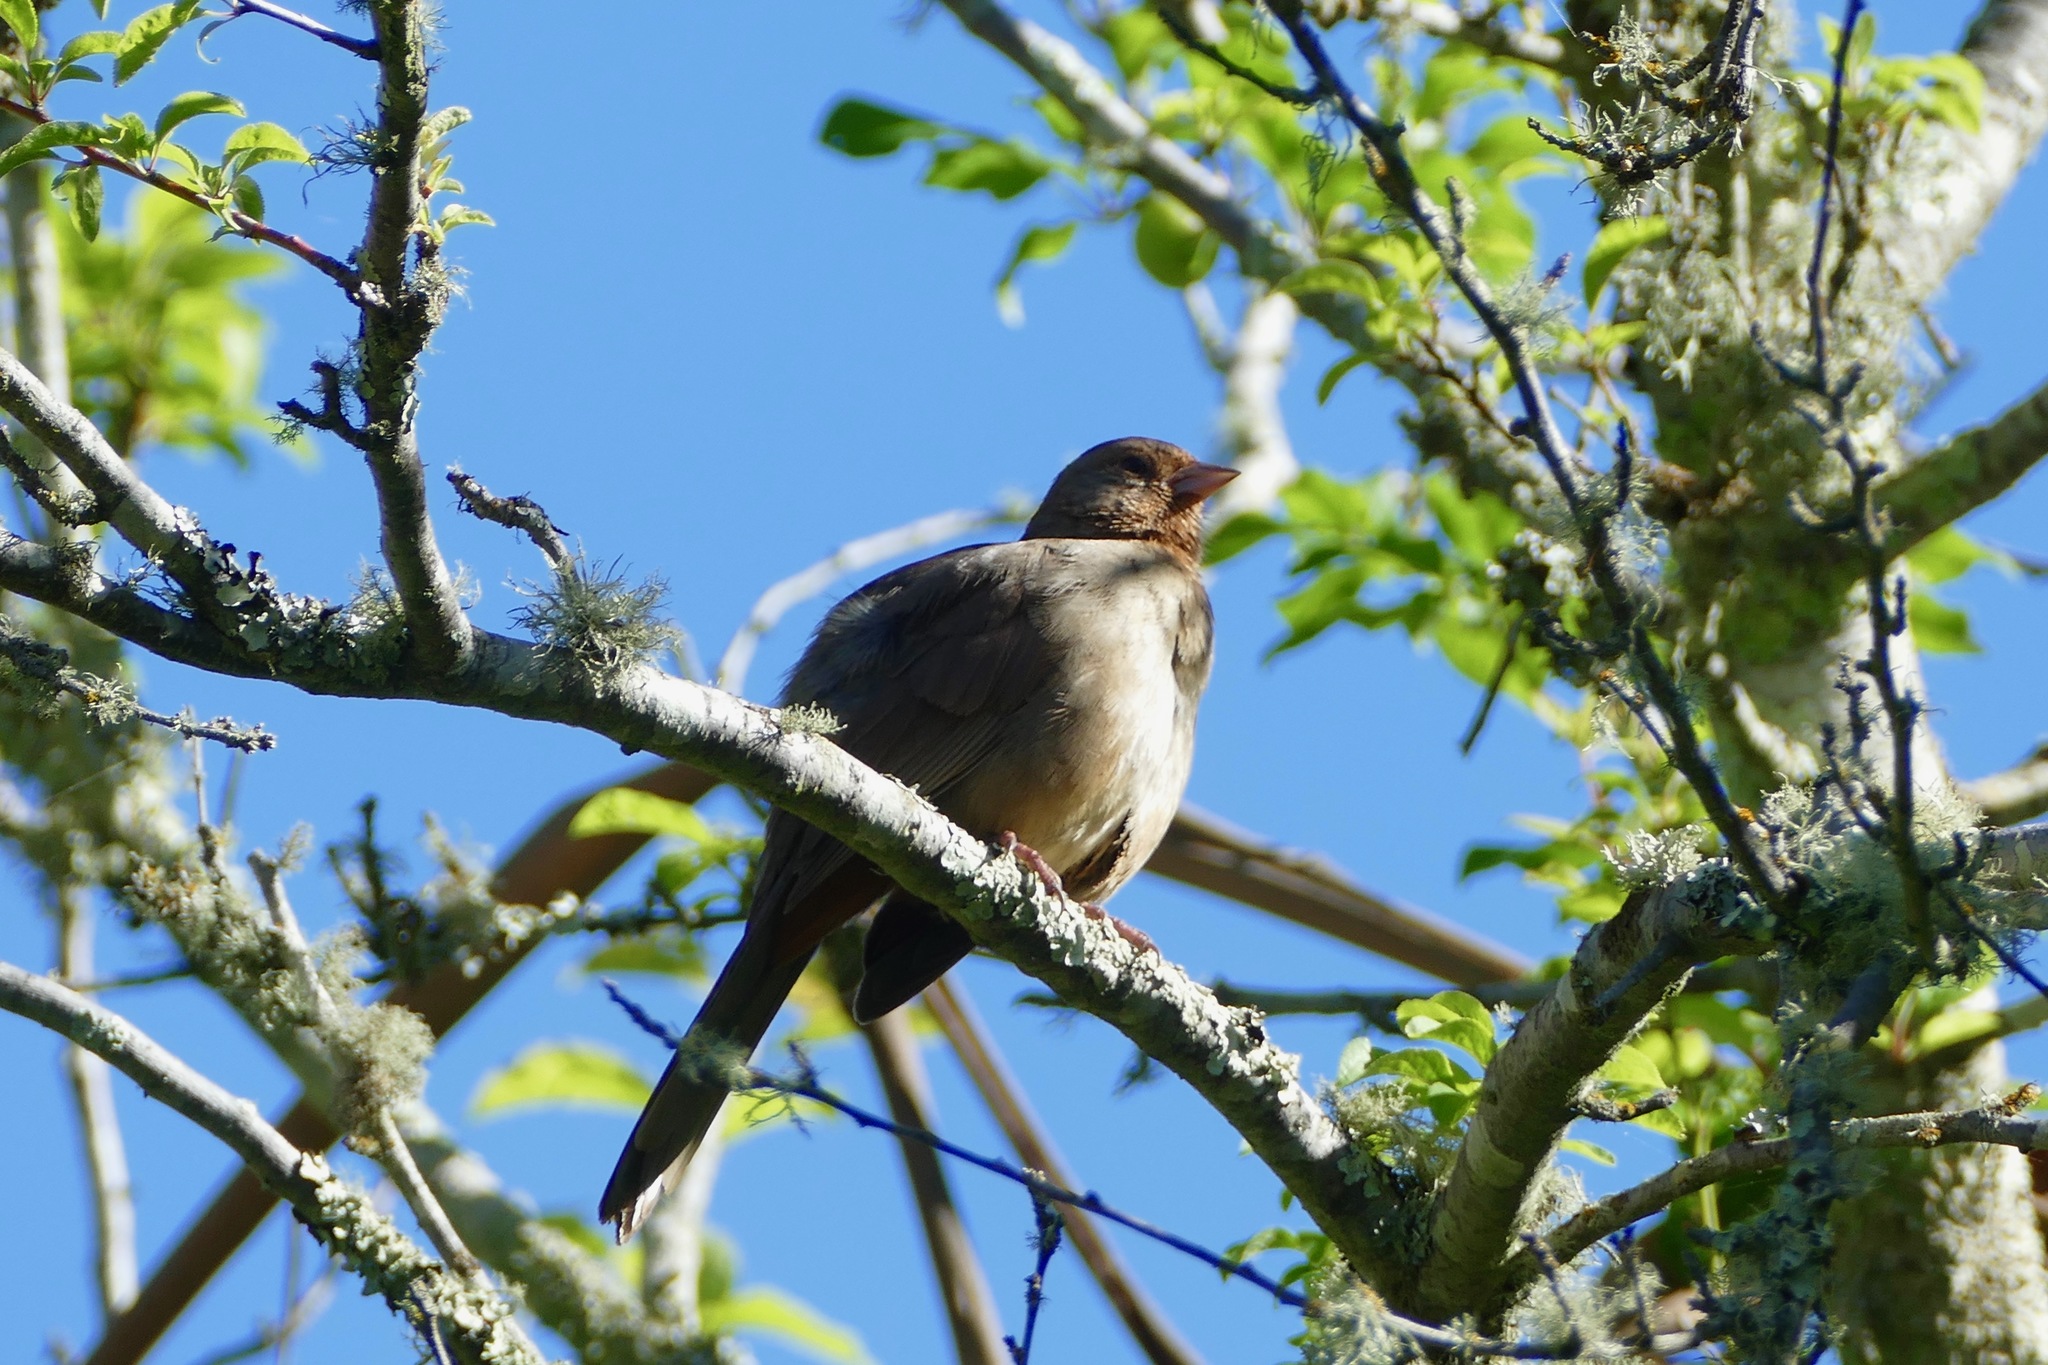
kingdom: Animalia
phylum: Chordata
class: Aves
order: Passeriformes
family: Passerellidae
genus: Melozone
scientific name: Melozone crissalis
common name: California towhee
